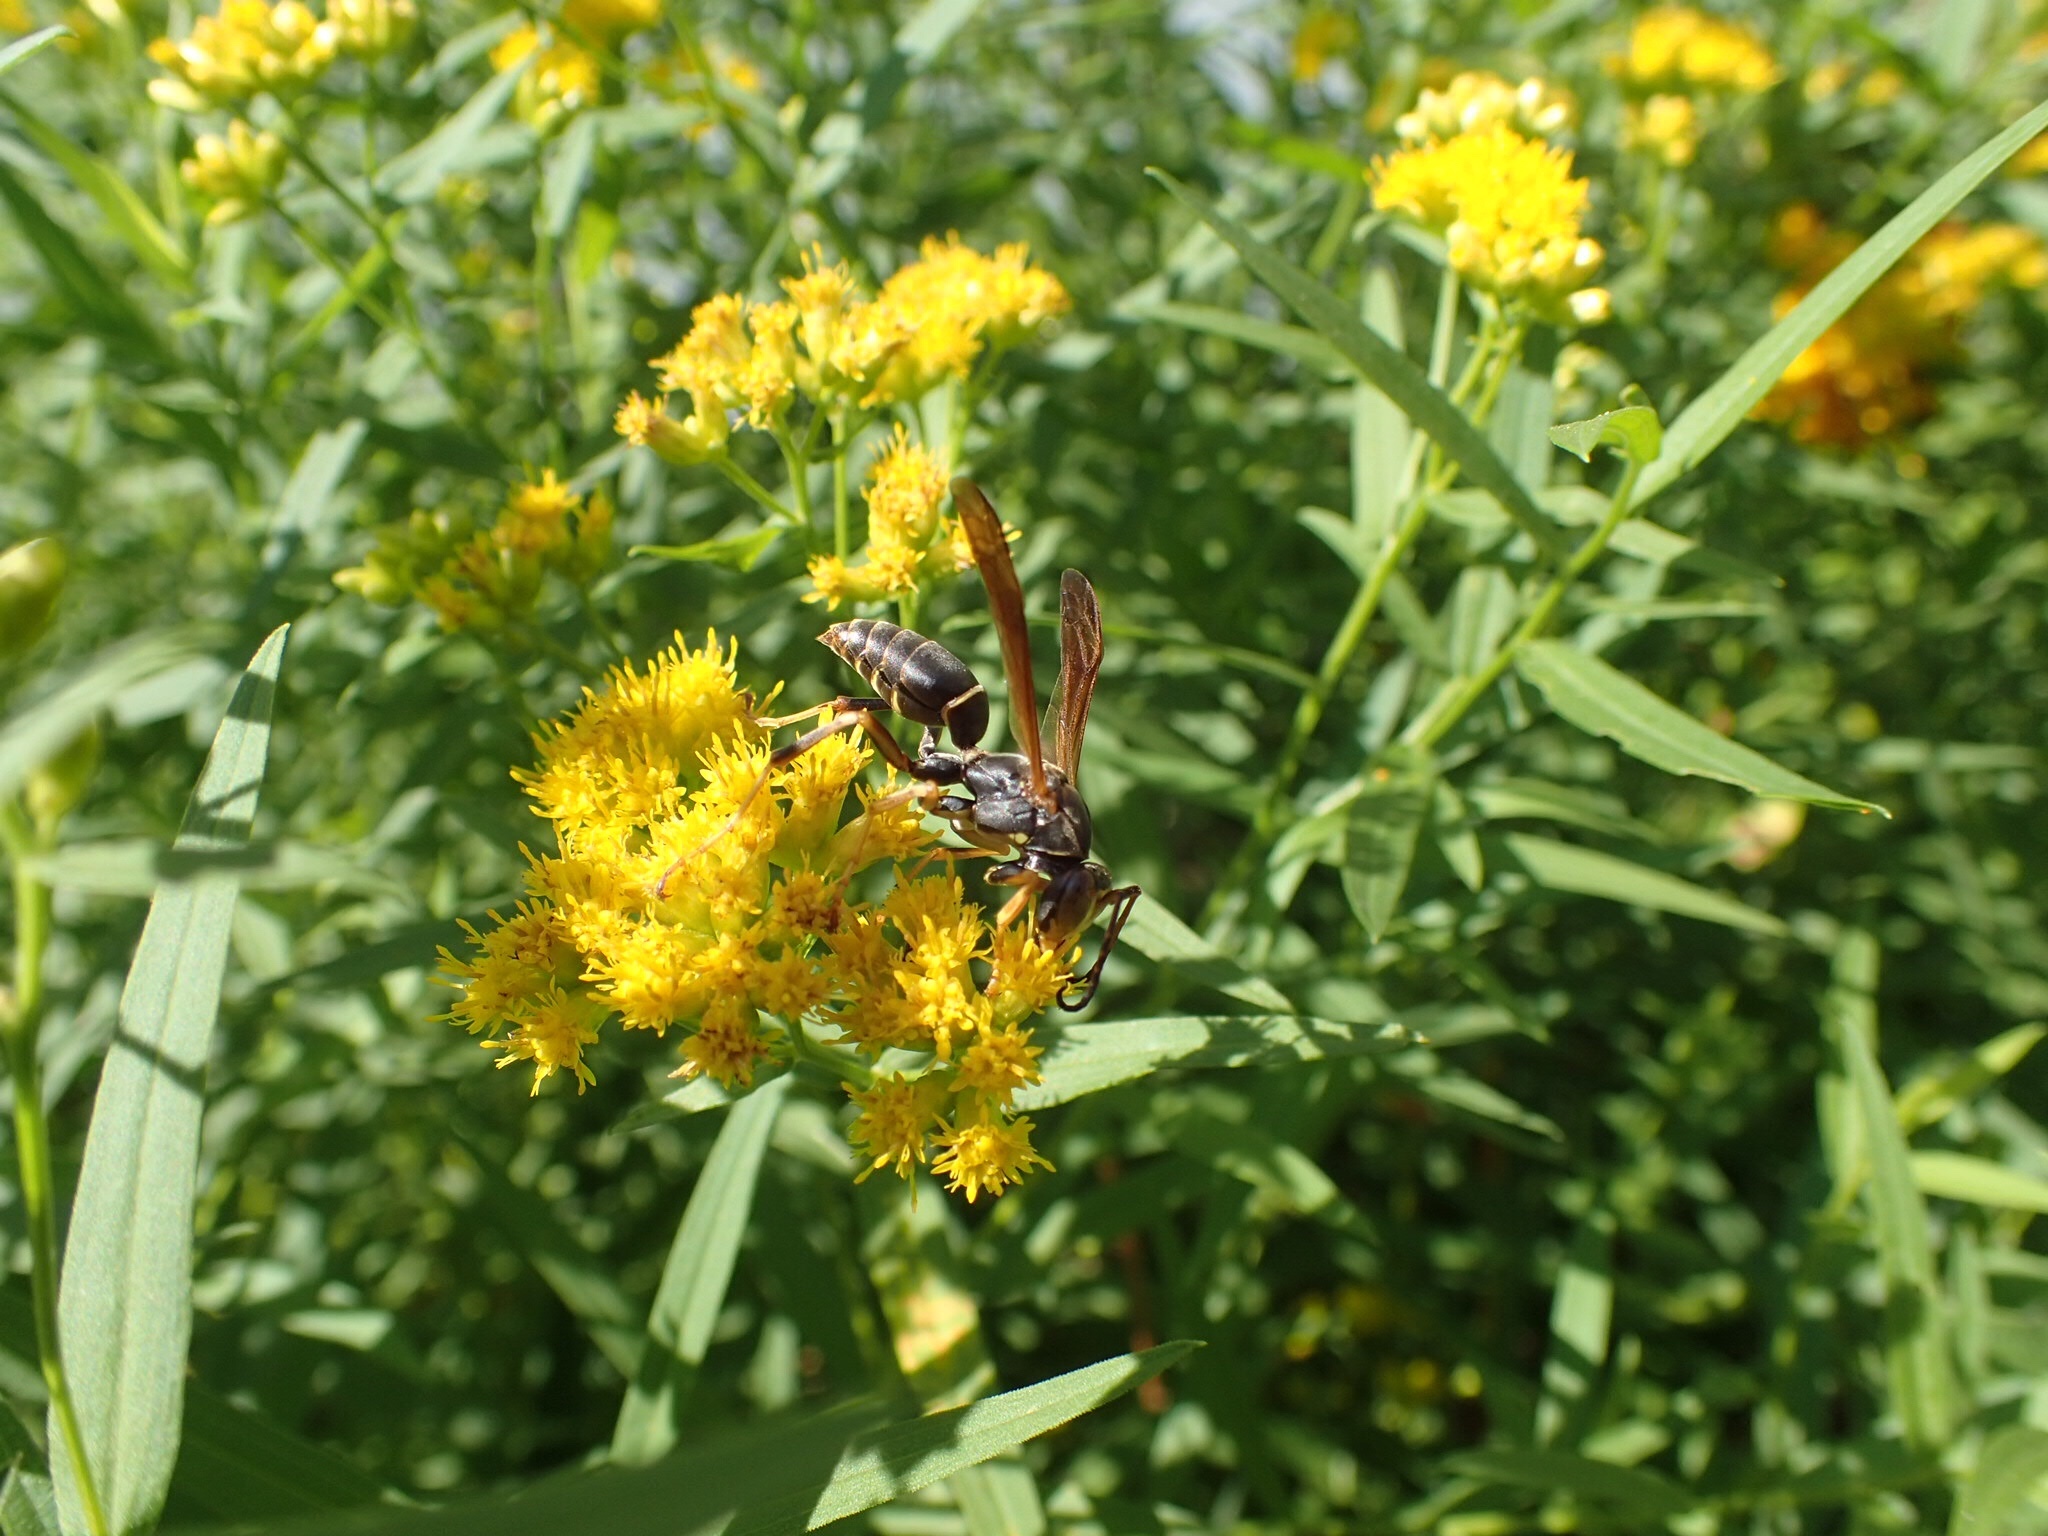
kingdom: Animalia
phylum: Arthropoda
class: Insecta
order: Hymenoptera
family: Eumenidae
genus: Polistes
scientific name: Polistes fuscatus
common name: Dark paper wasp
